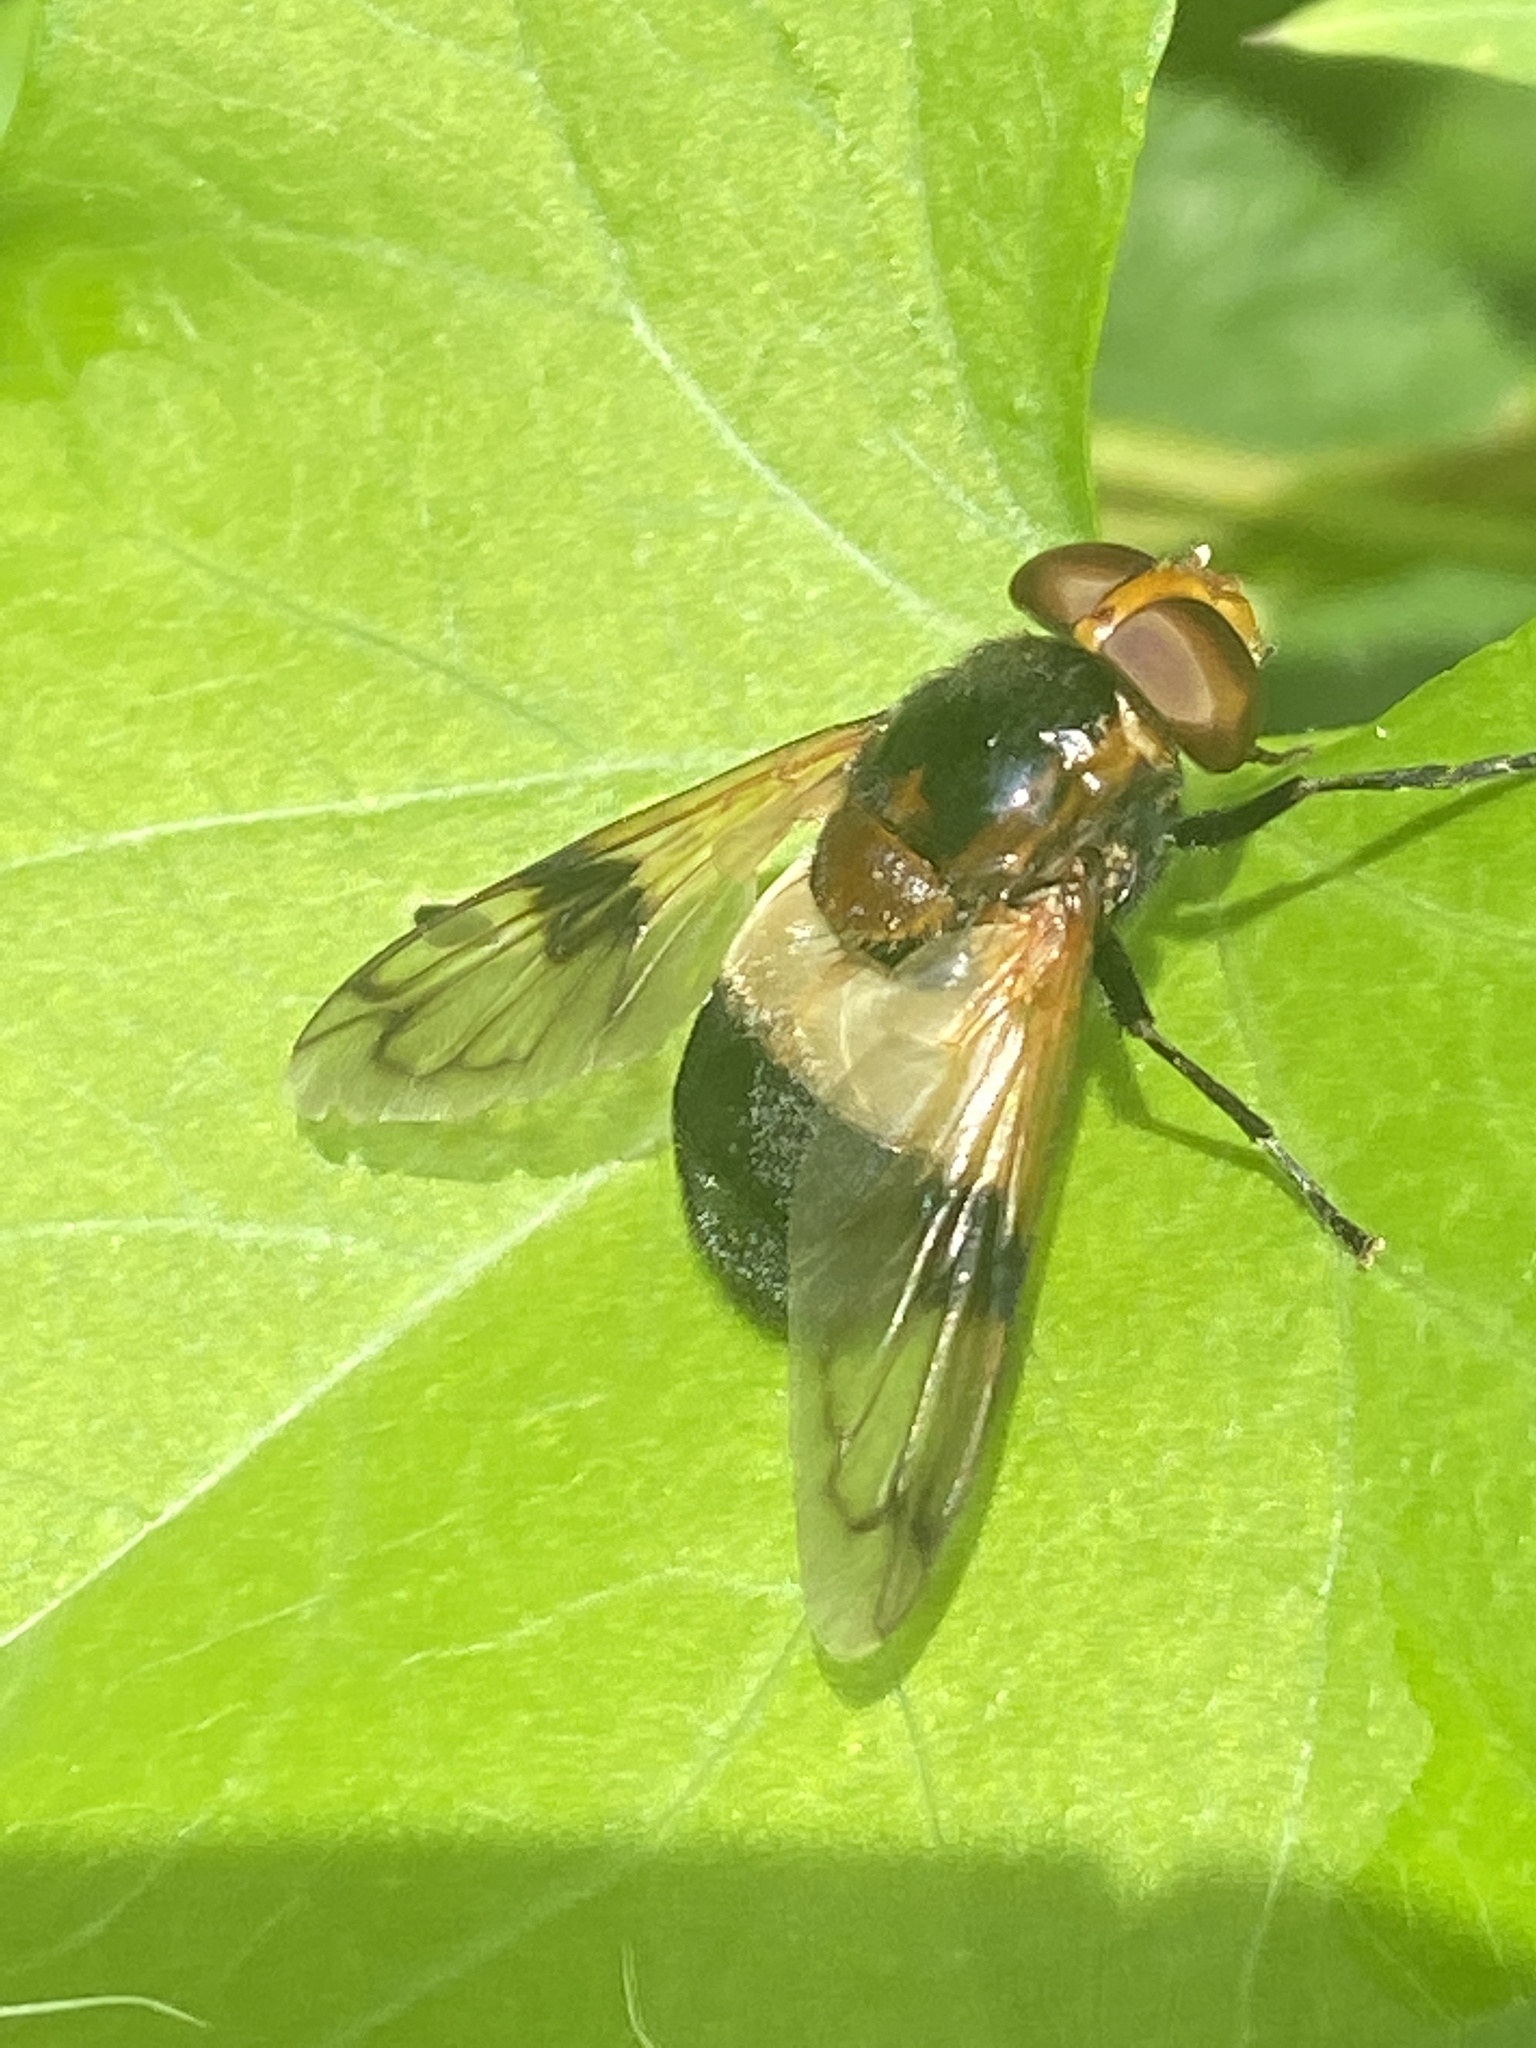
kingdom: Animalia
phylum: Arthropoda
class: Insecta
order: Diptera
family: Syrphidae
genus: Volucella
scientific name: Volucella pellucens
